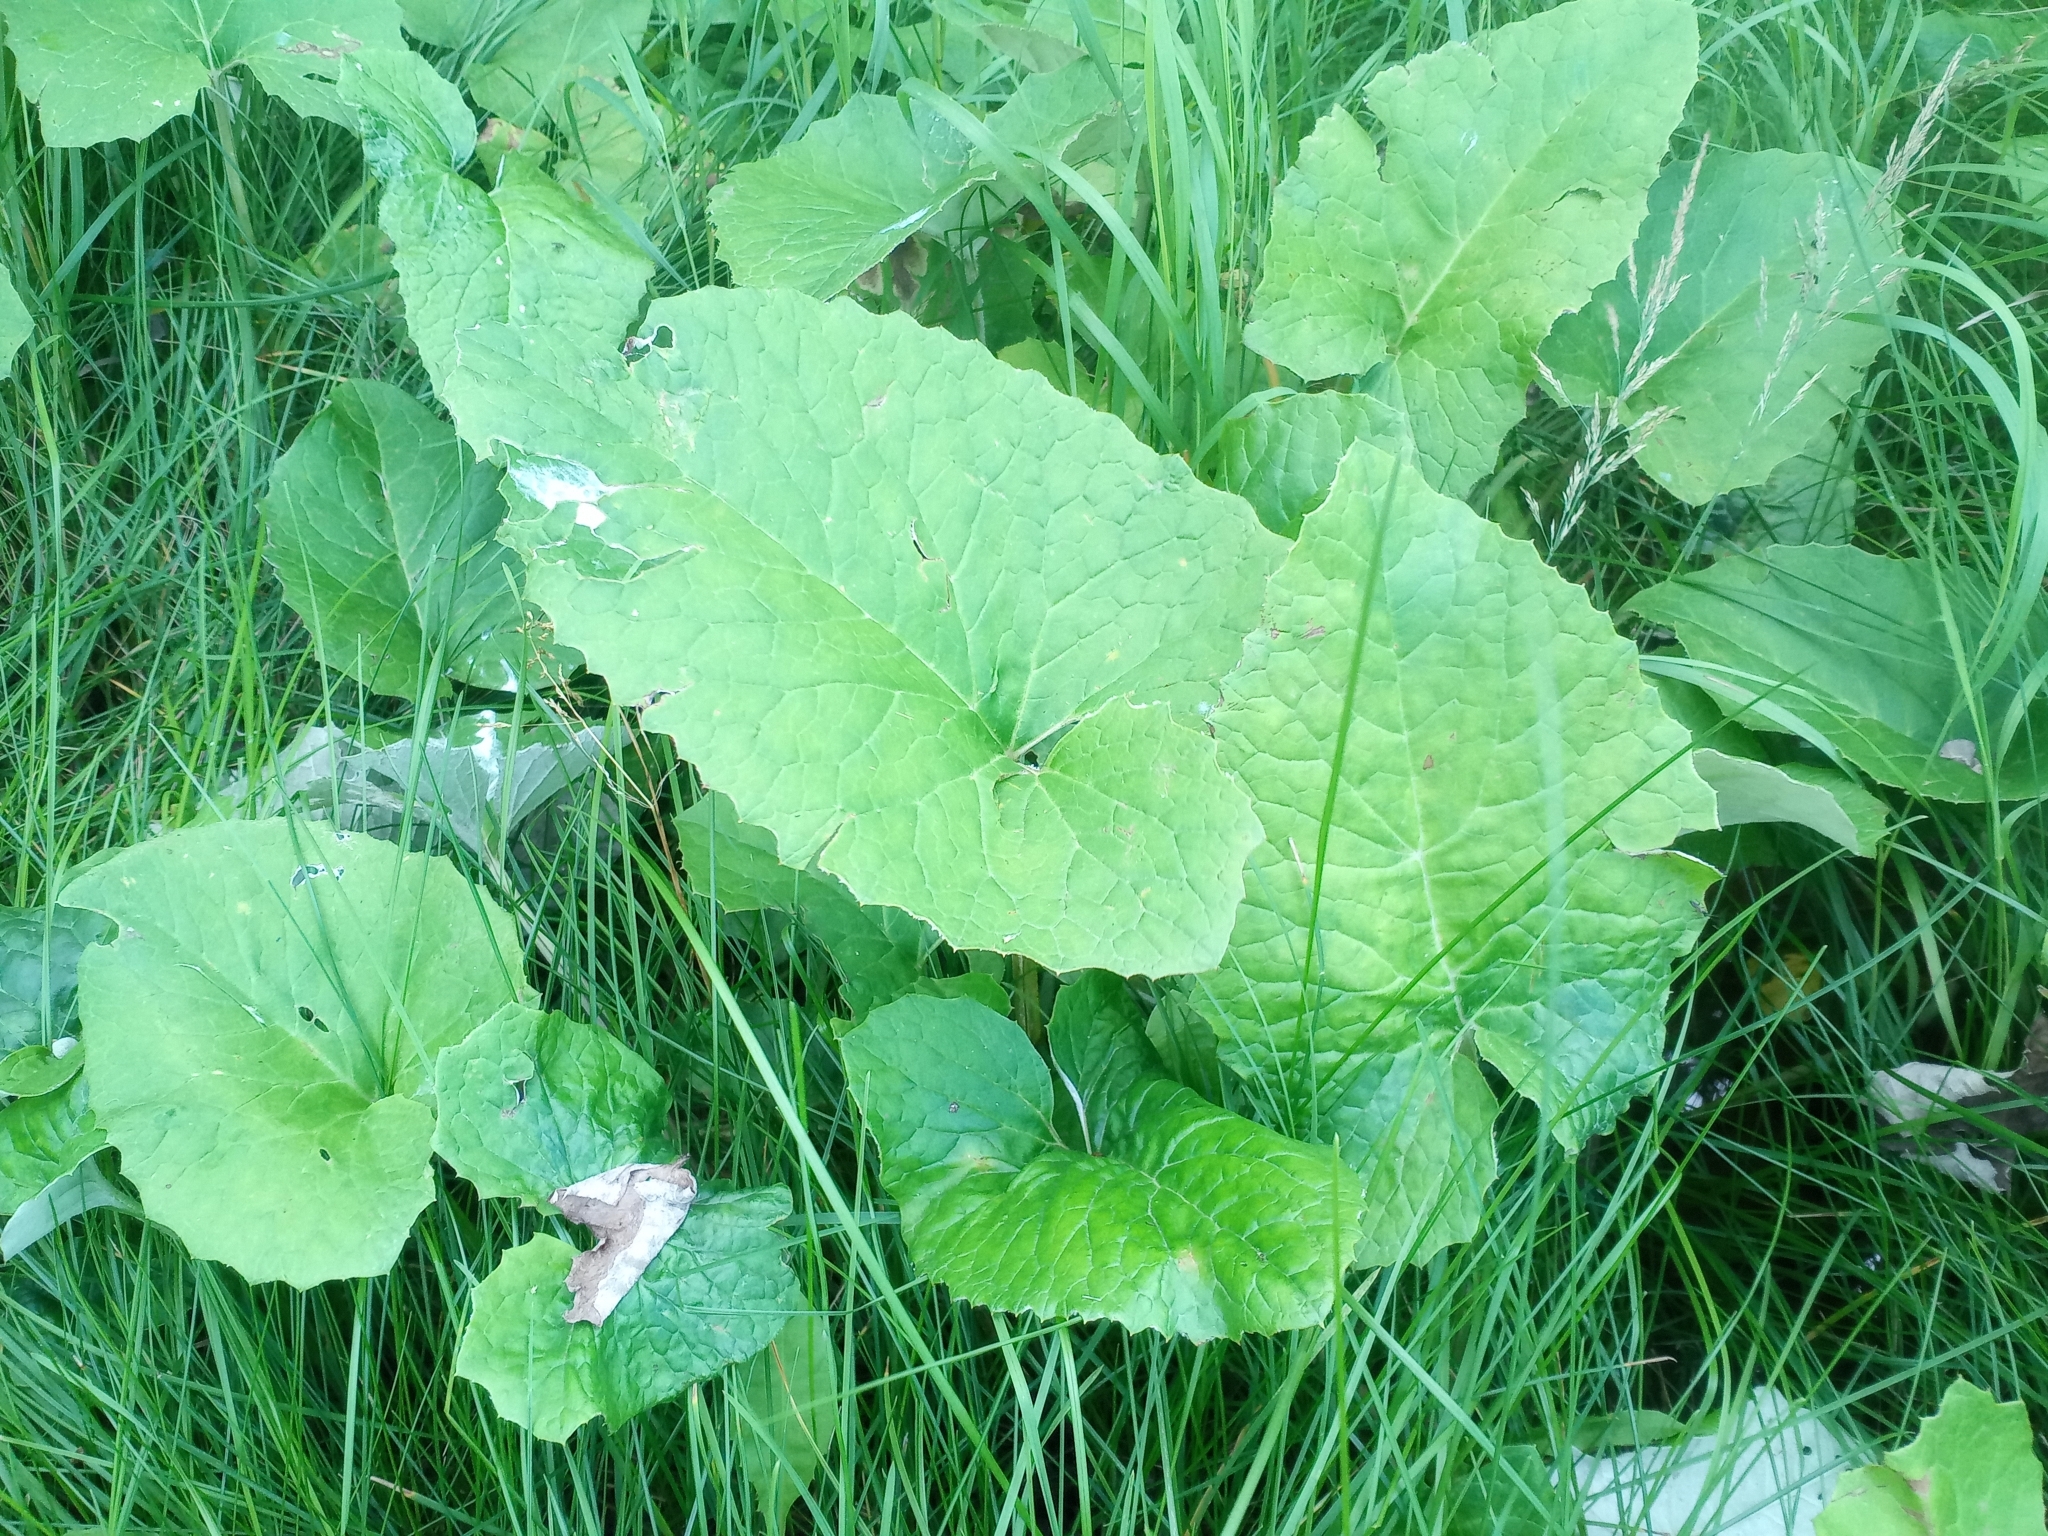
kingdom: Plantae
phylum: Tracheophyta
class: Magnoliopsida
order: Asterales
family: Asteraceae
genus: Petasites
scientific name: Petasites frigidus
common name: Arctic butterbur
